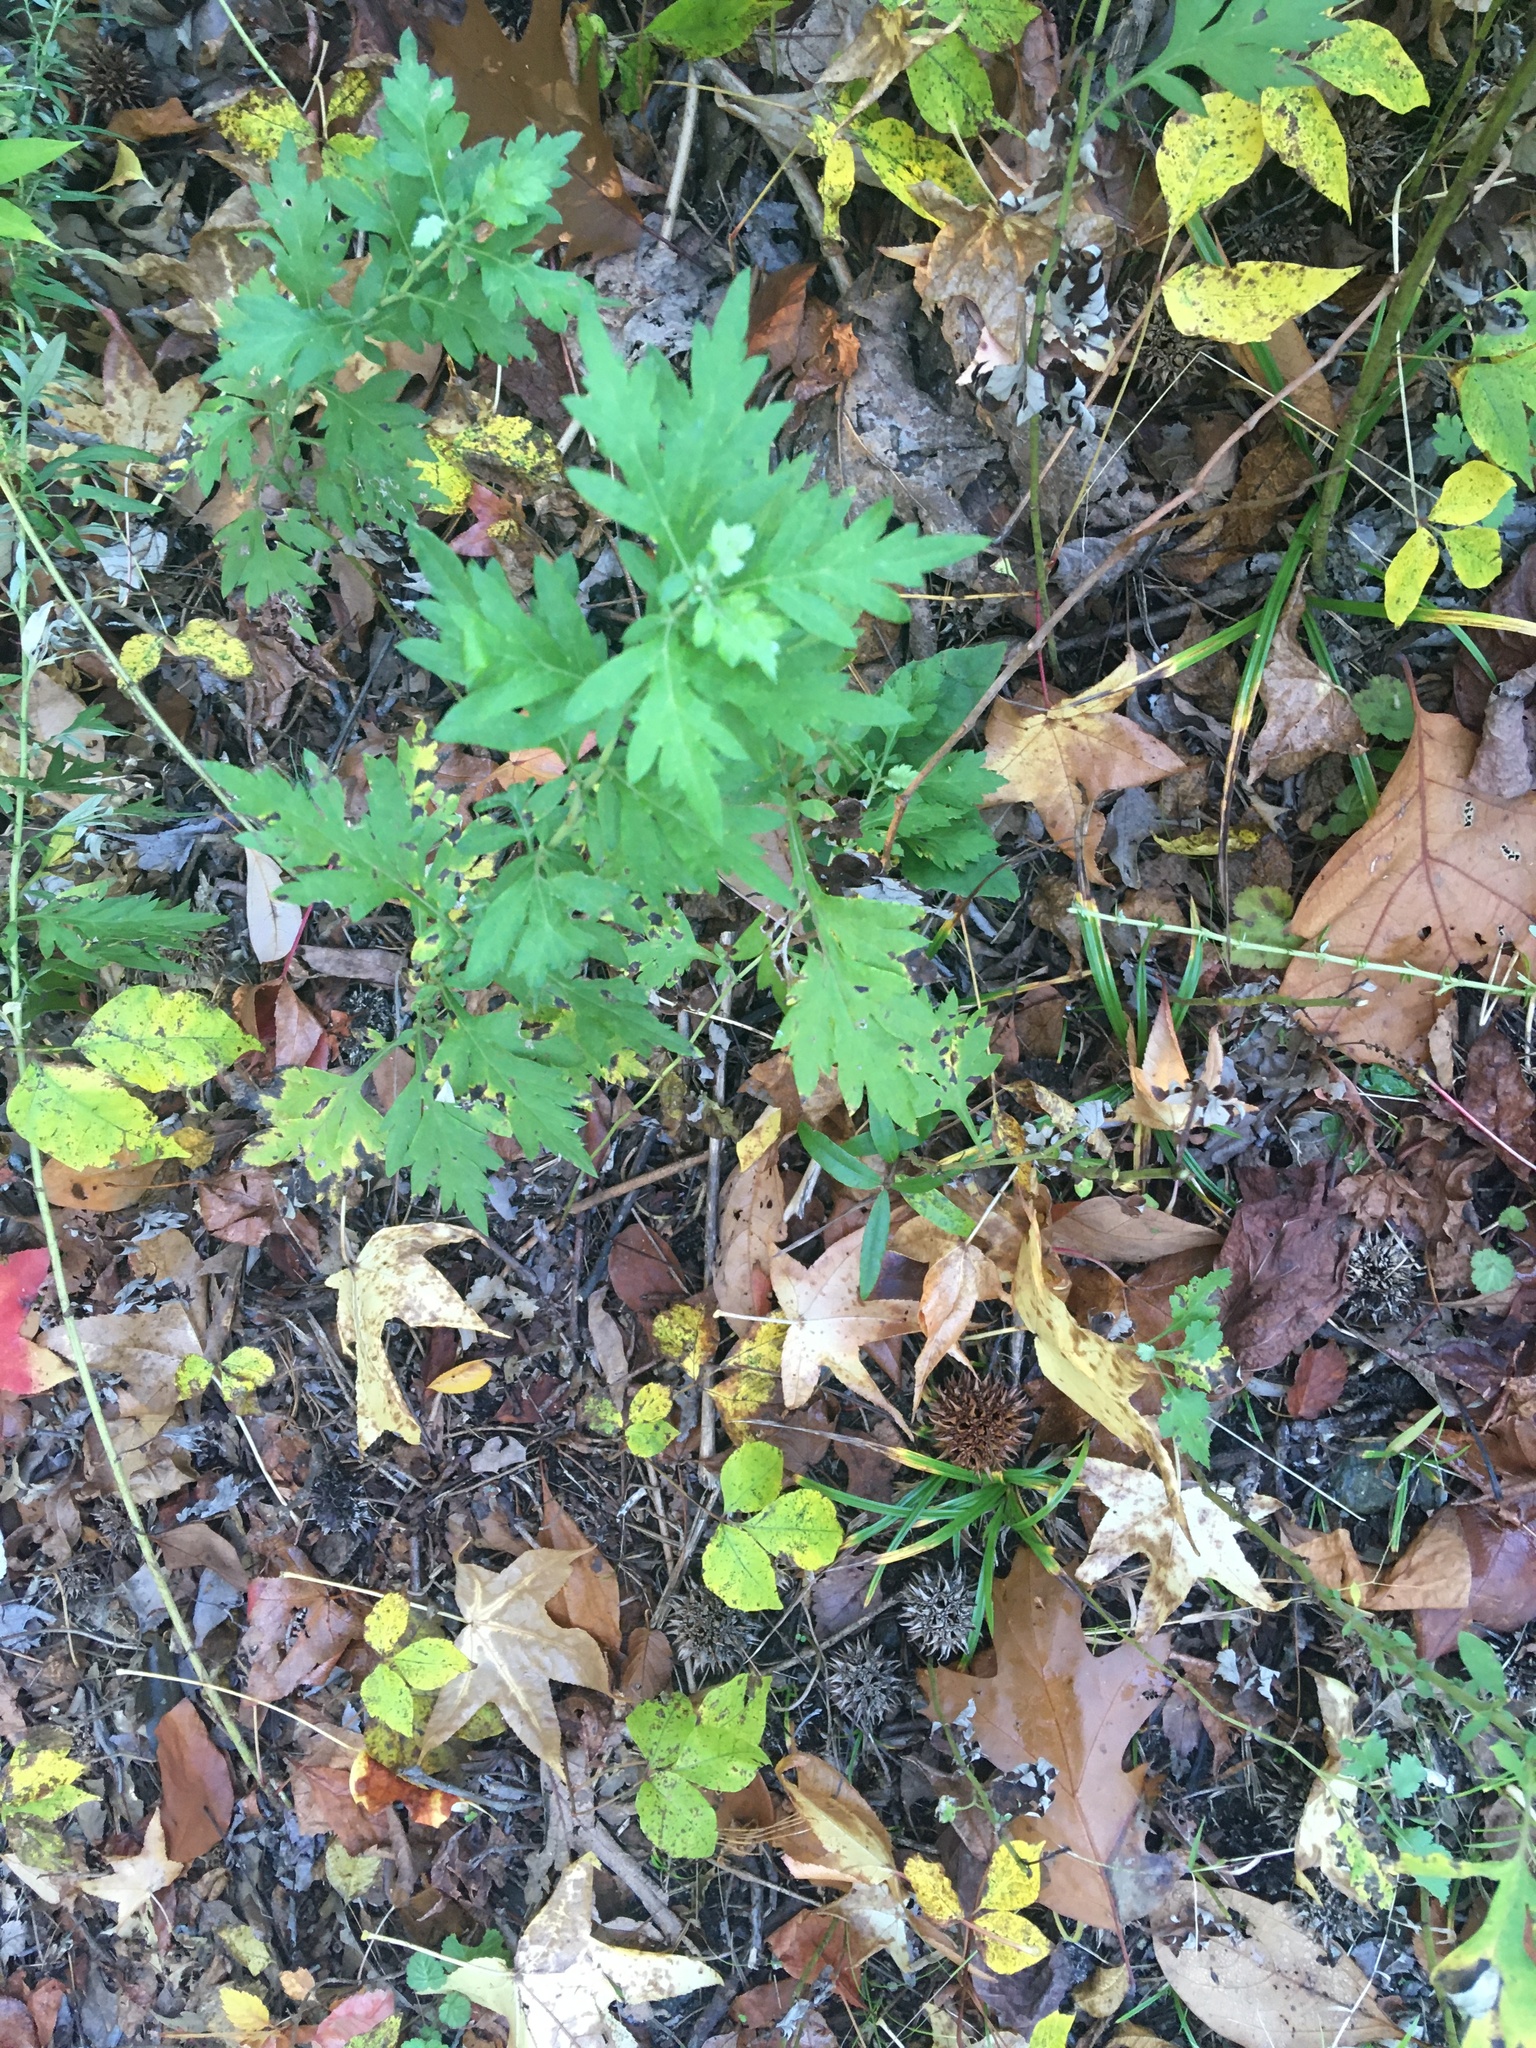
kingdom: Plantae
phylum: Tracheophyta
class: Magnoliopsida
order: Asterales
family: Asteraceae
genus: Artemisia
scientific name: Artemisia vulgaris
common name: Mugwort
